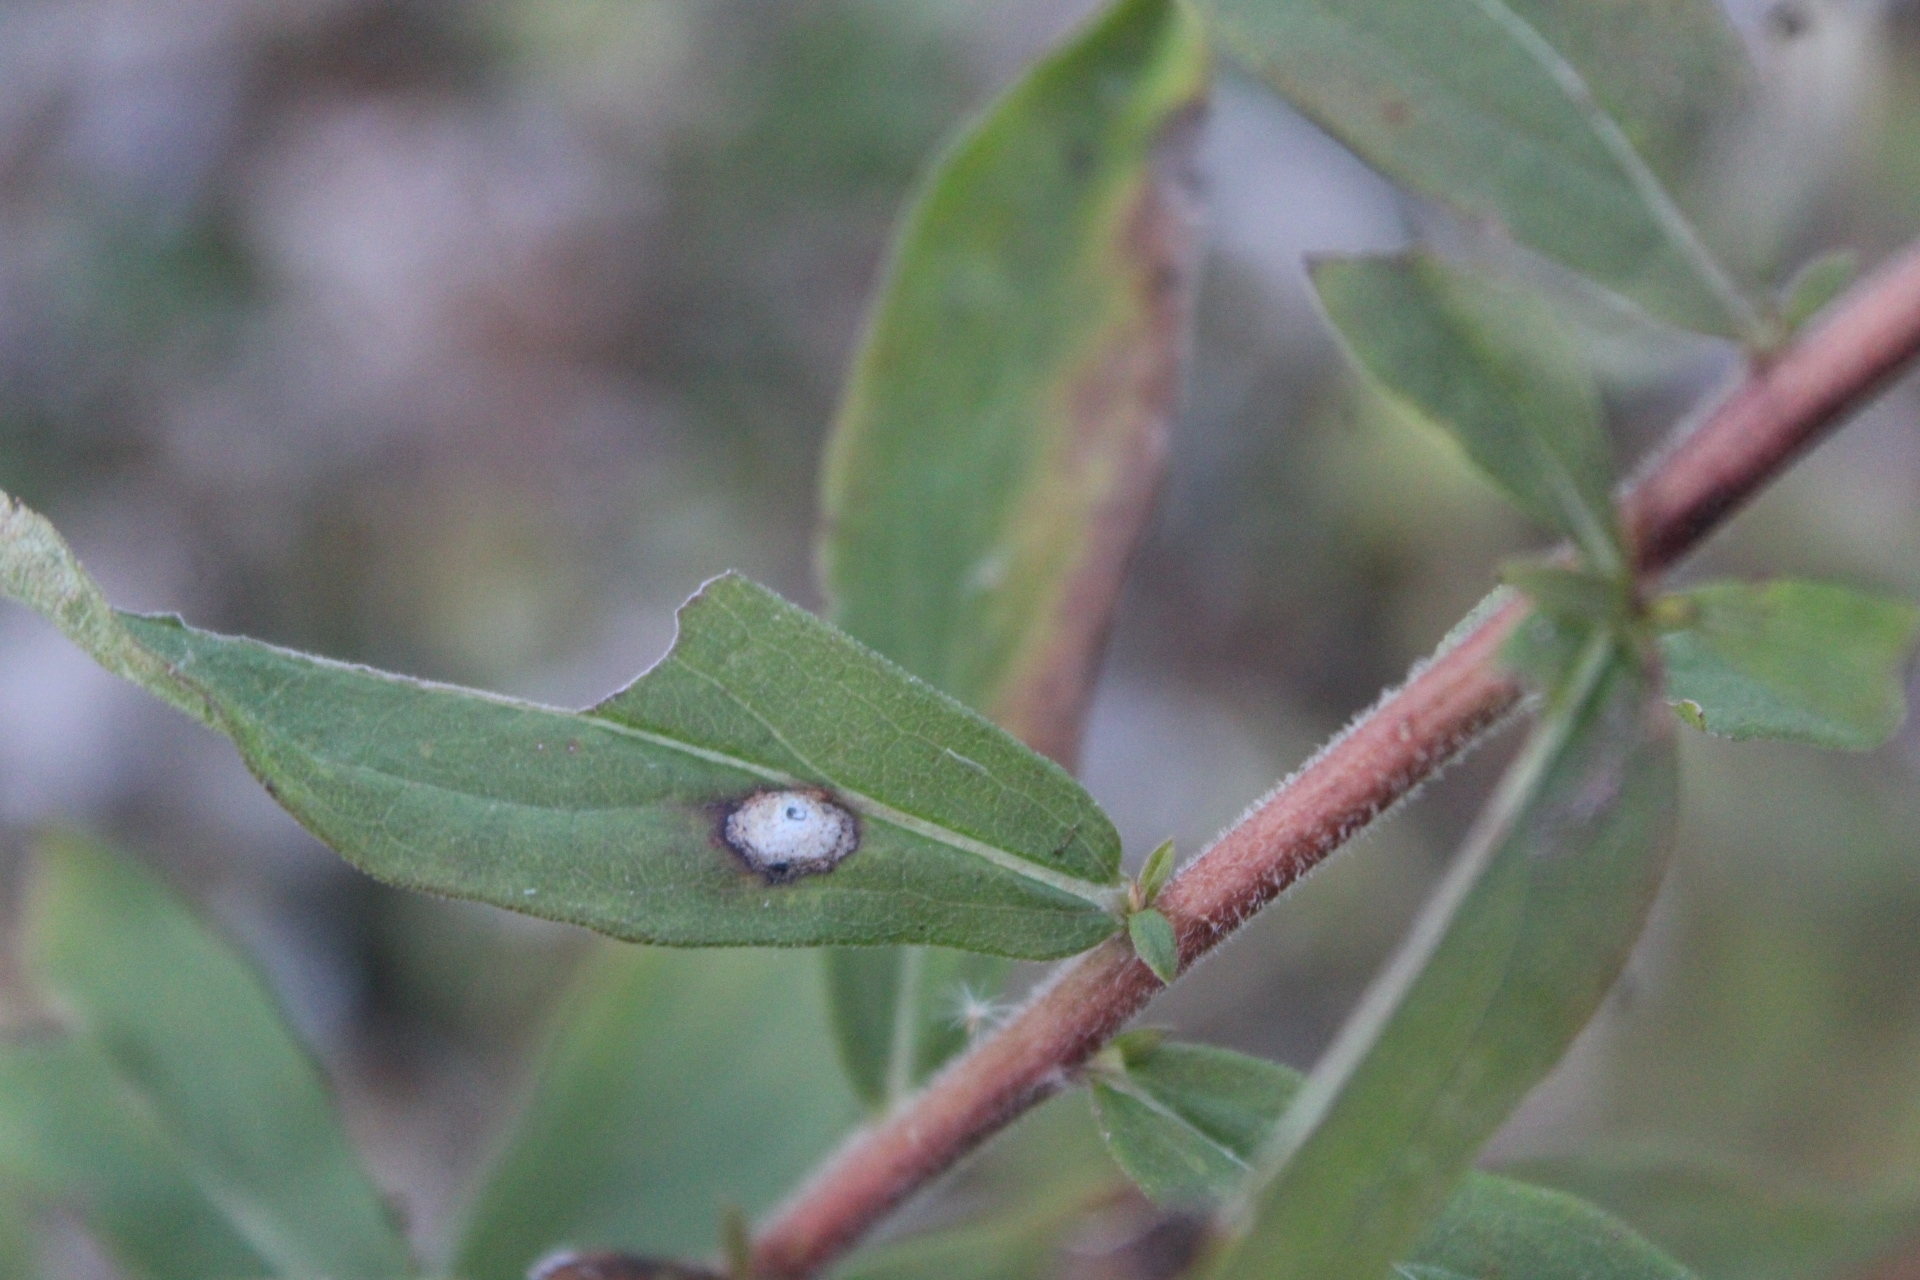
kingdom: Animalia
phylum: Arthropoda
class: Insecta
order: Diptera
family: Cecidomyiidae
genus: Asteromyia
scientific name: Asteromyia carbonifera
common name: Carbonifera goldenrod gall midge
